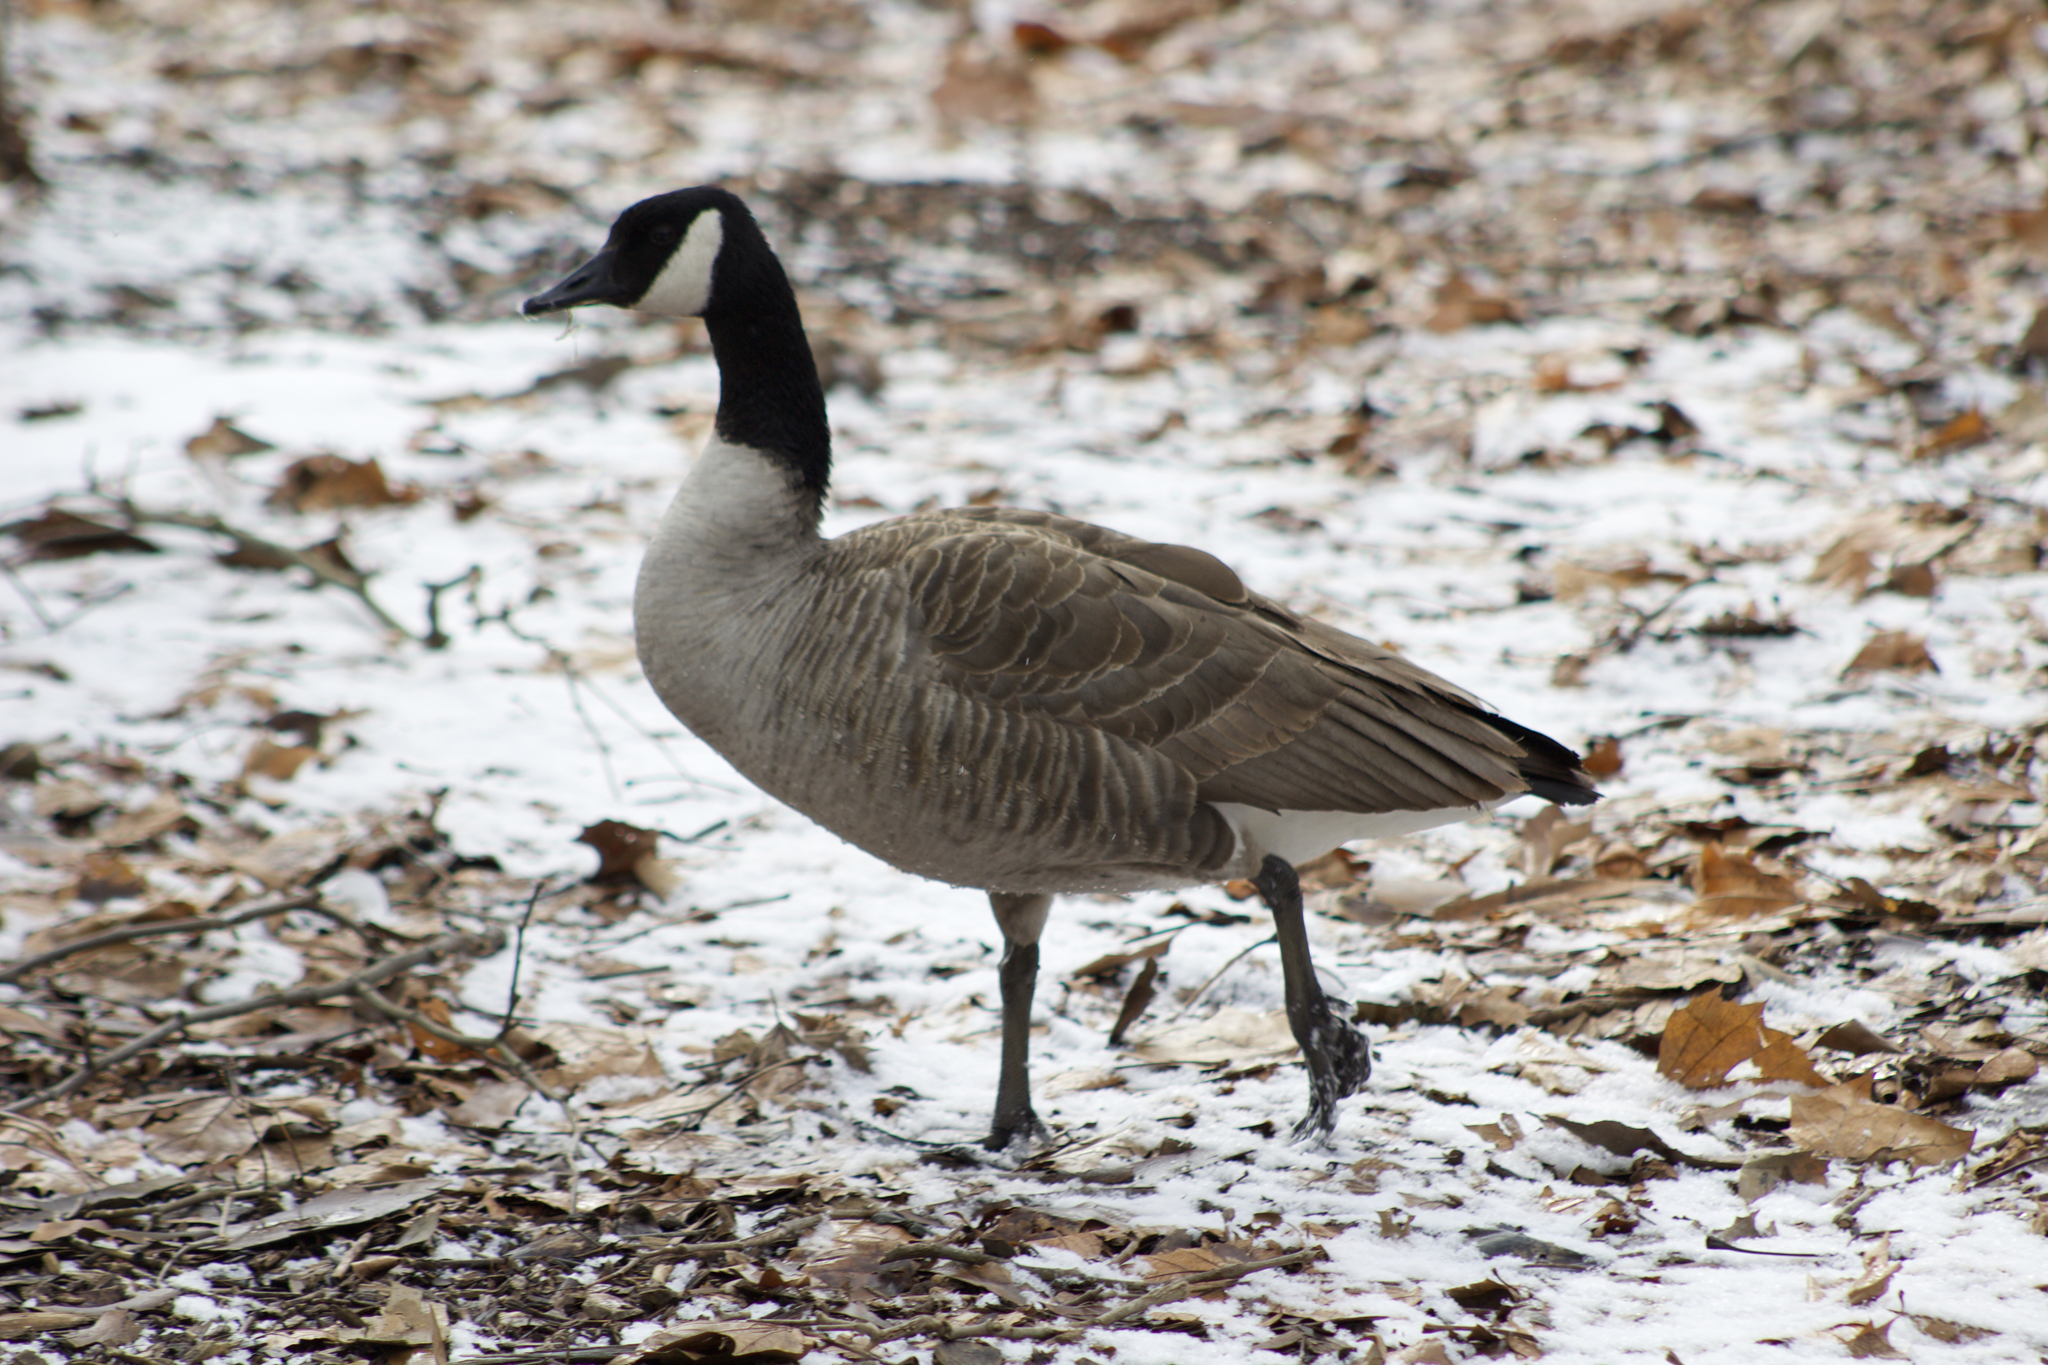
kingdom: Animalia
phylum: Chordata
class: Aves
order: Anseriformes
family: Anatidae
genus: Branta
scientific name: Branta canadensis
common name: Canada goose
